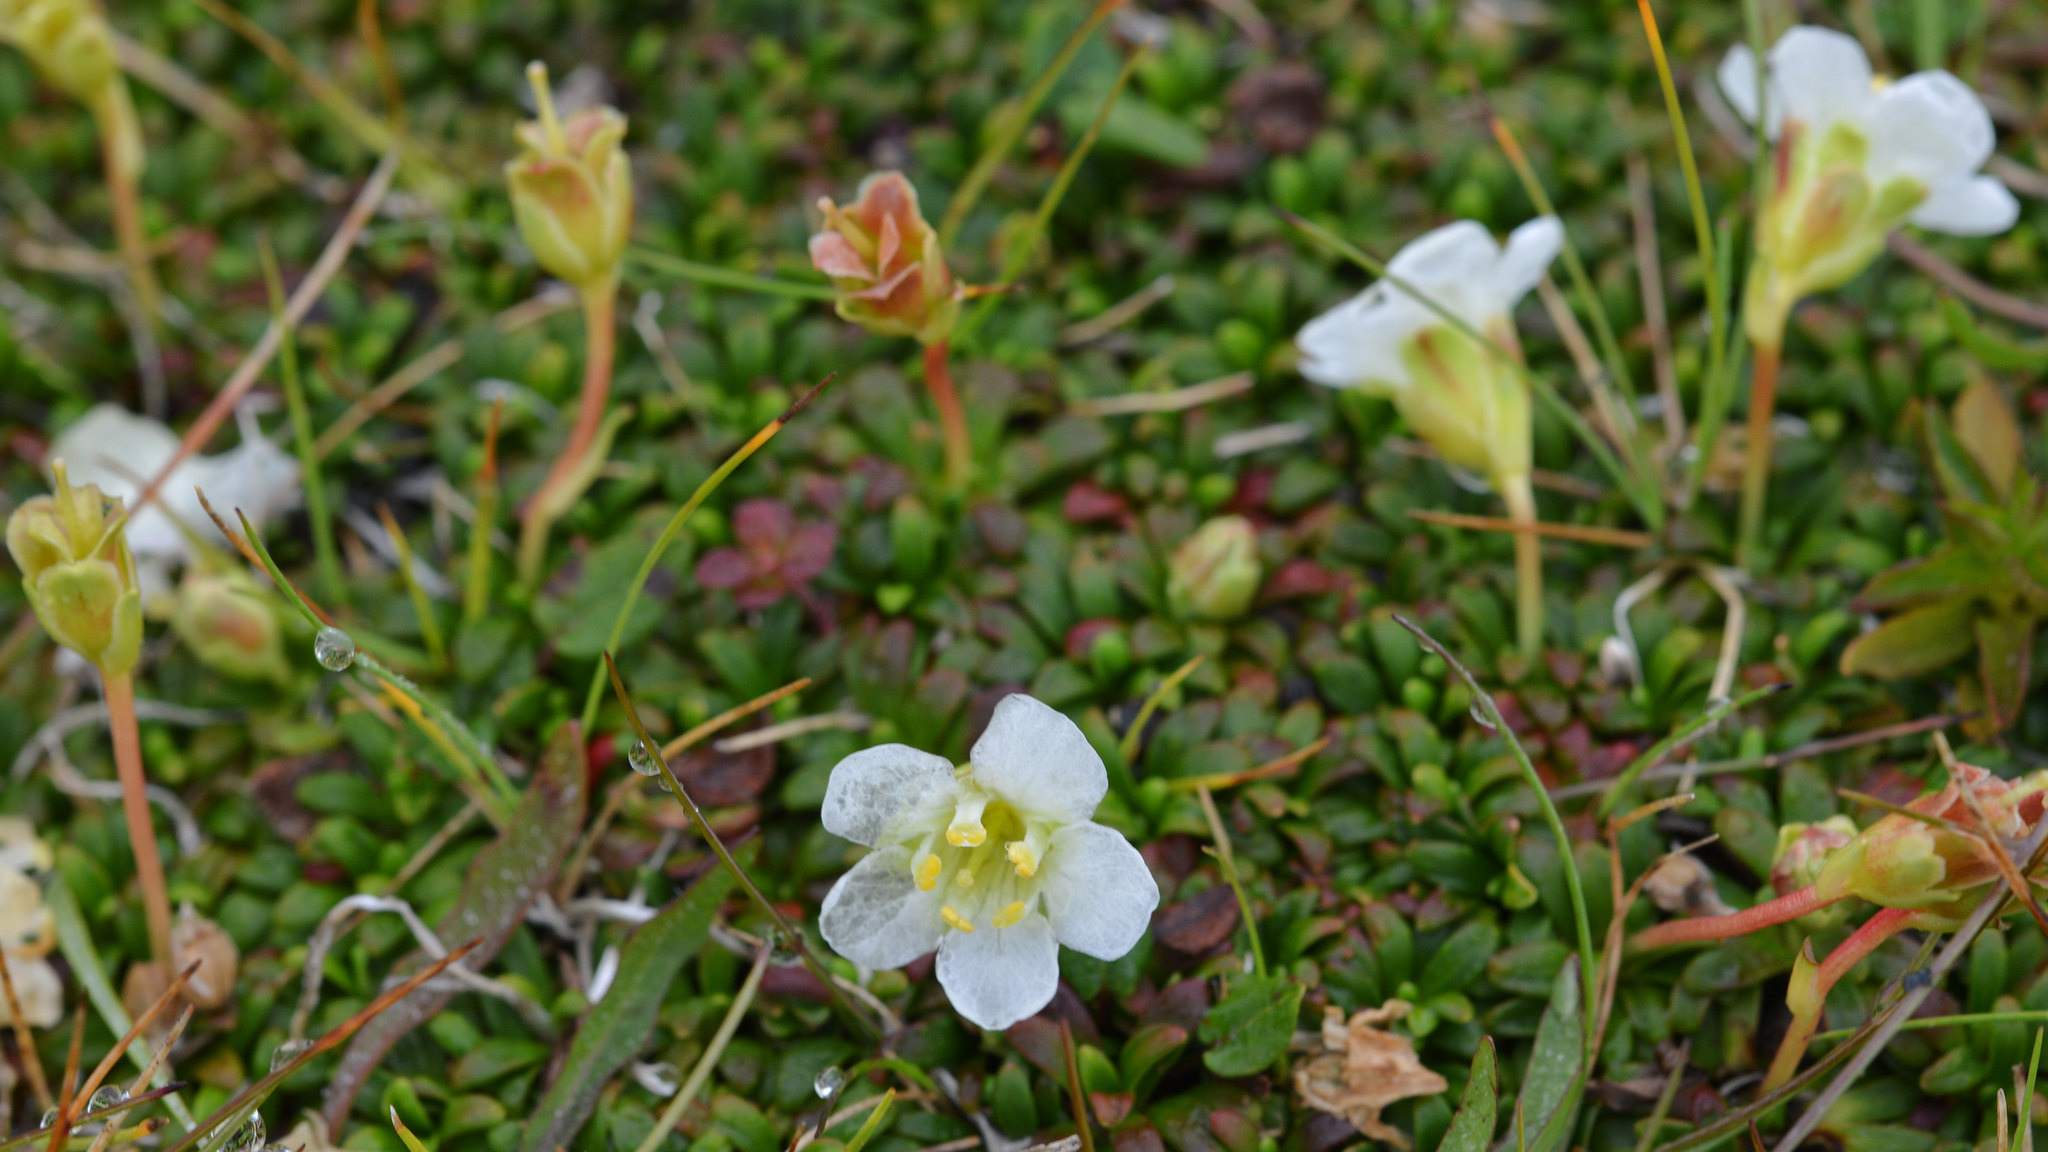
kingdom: Plantae
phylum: Tracheophyta
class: Magnoliopsida
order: Ericales
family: Diapensiaceae
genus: Diapensia
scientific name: Diapensia lapponica
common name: Diapensia
